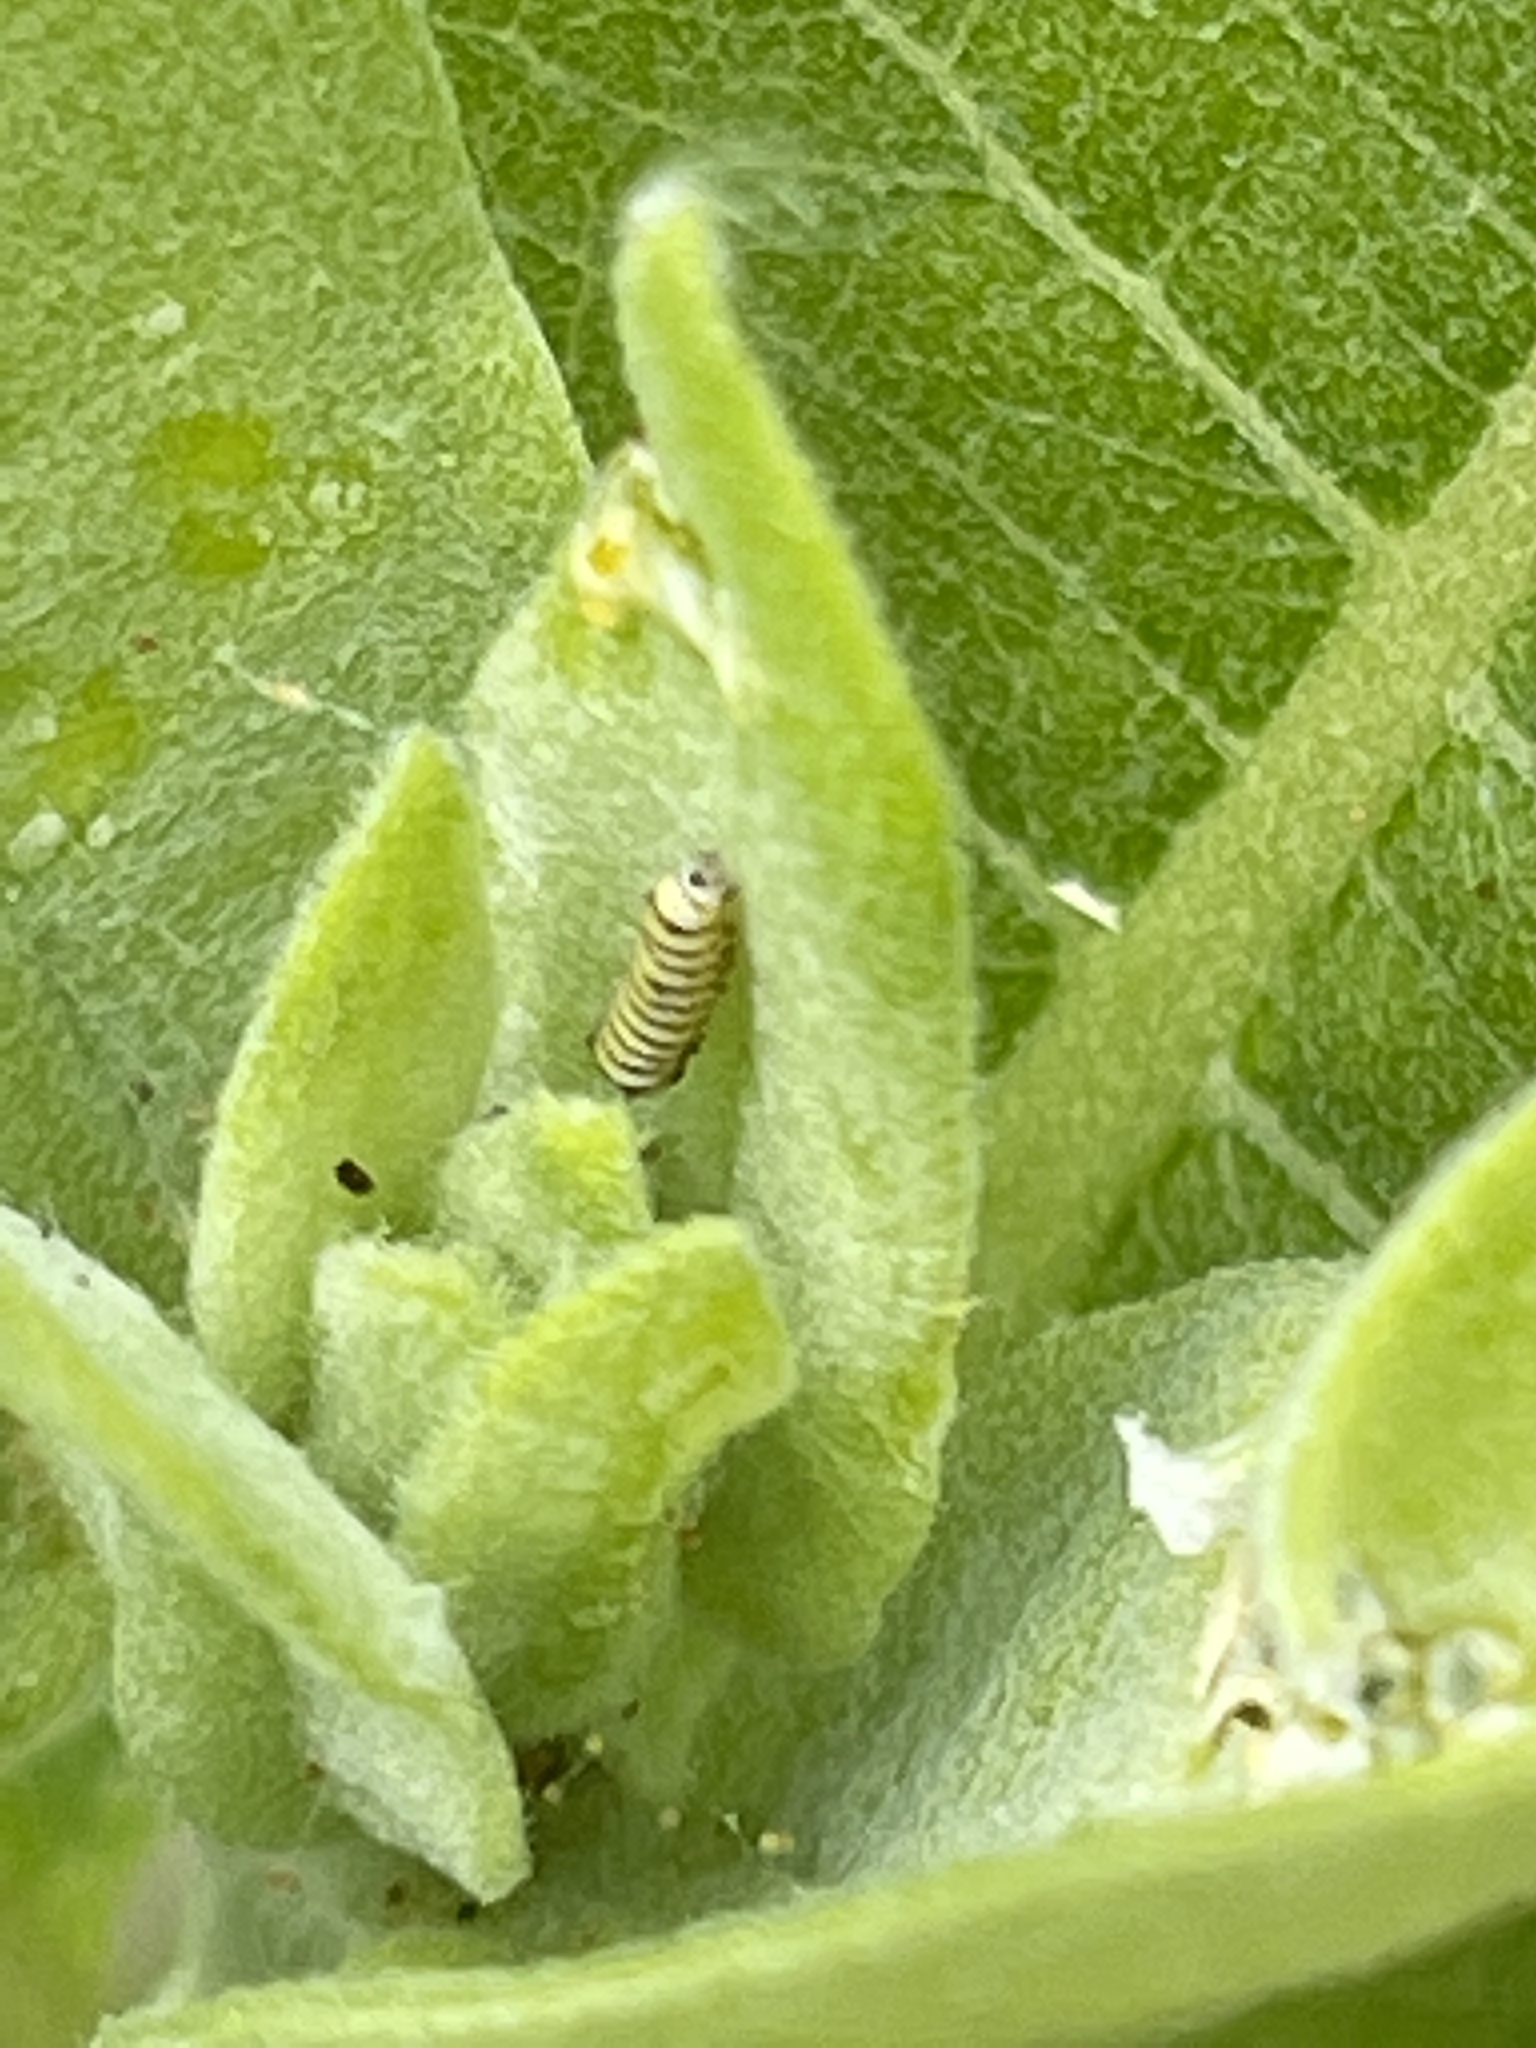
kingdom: Animalia
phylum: Arthropoda
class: Insecta
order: Lepidoptera
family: Nymphalidae
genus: Danaus
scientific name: Danaus plexippus
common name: Monarch
